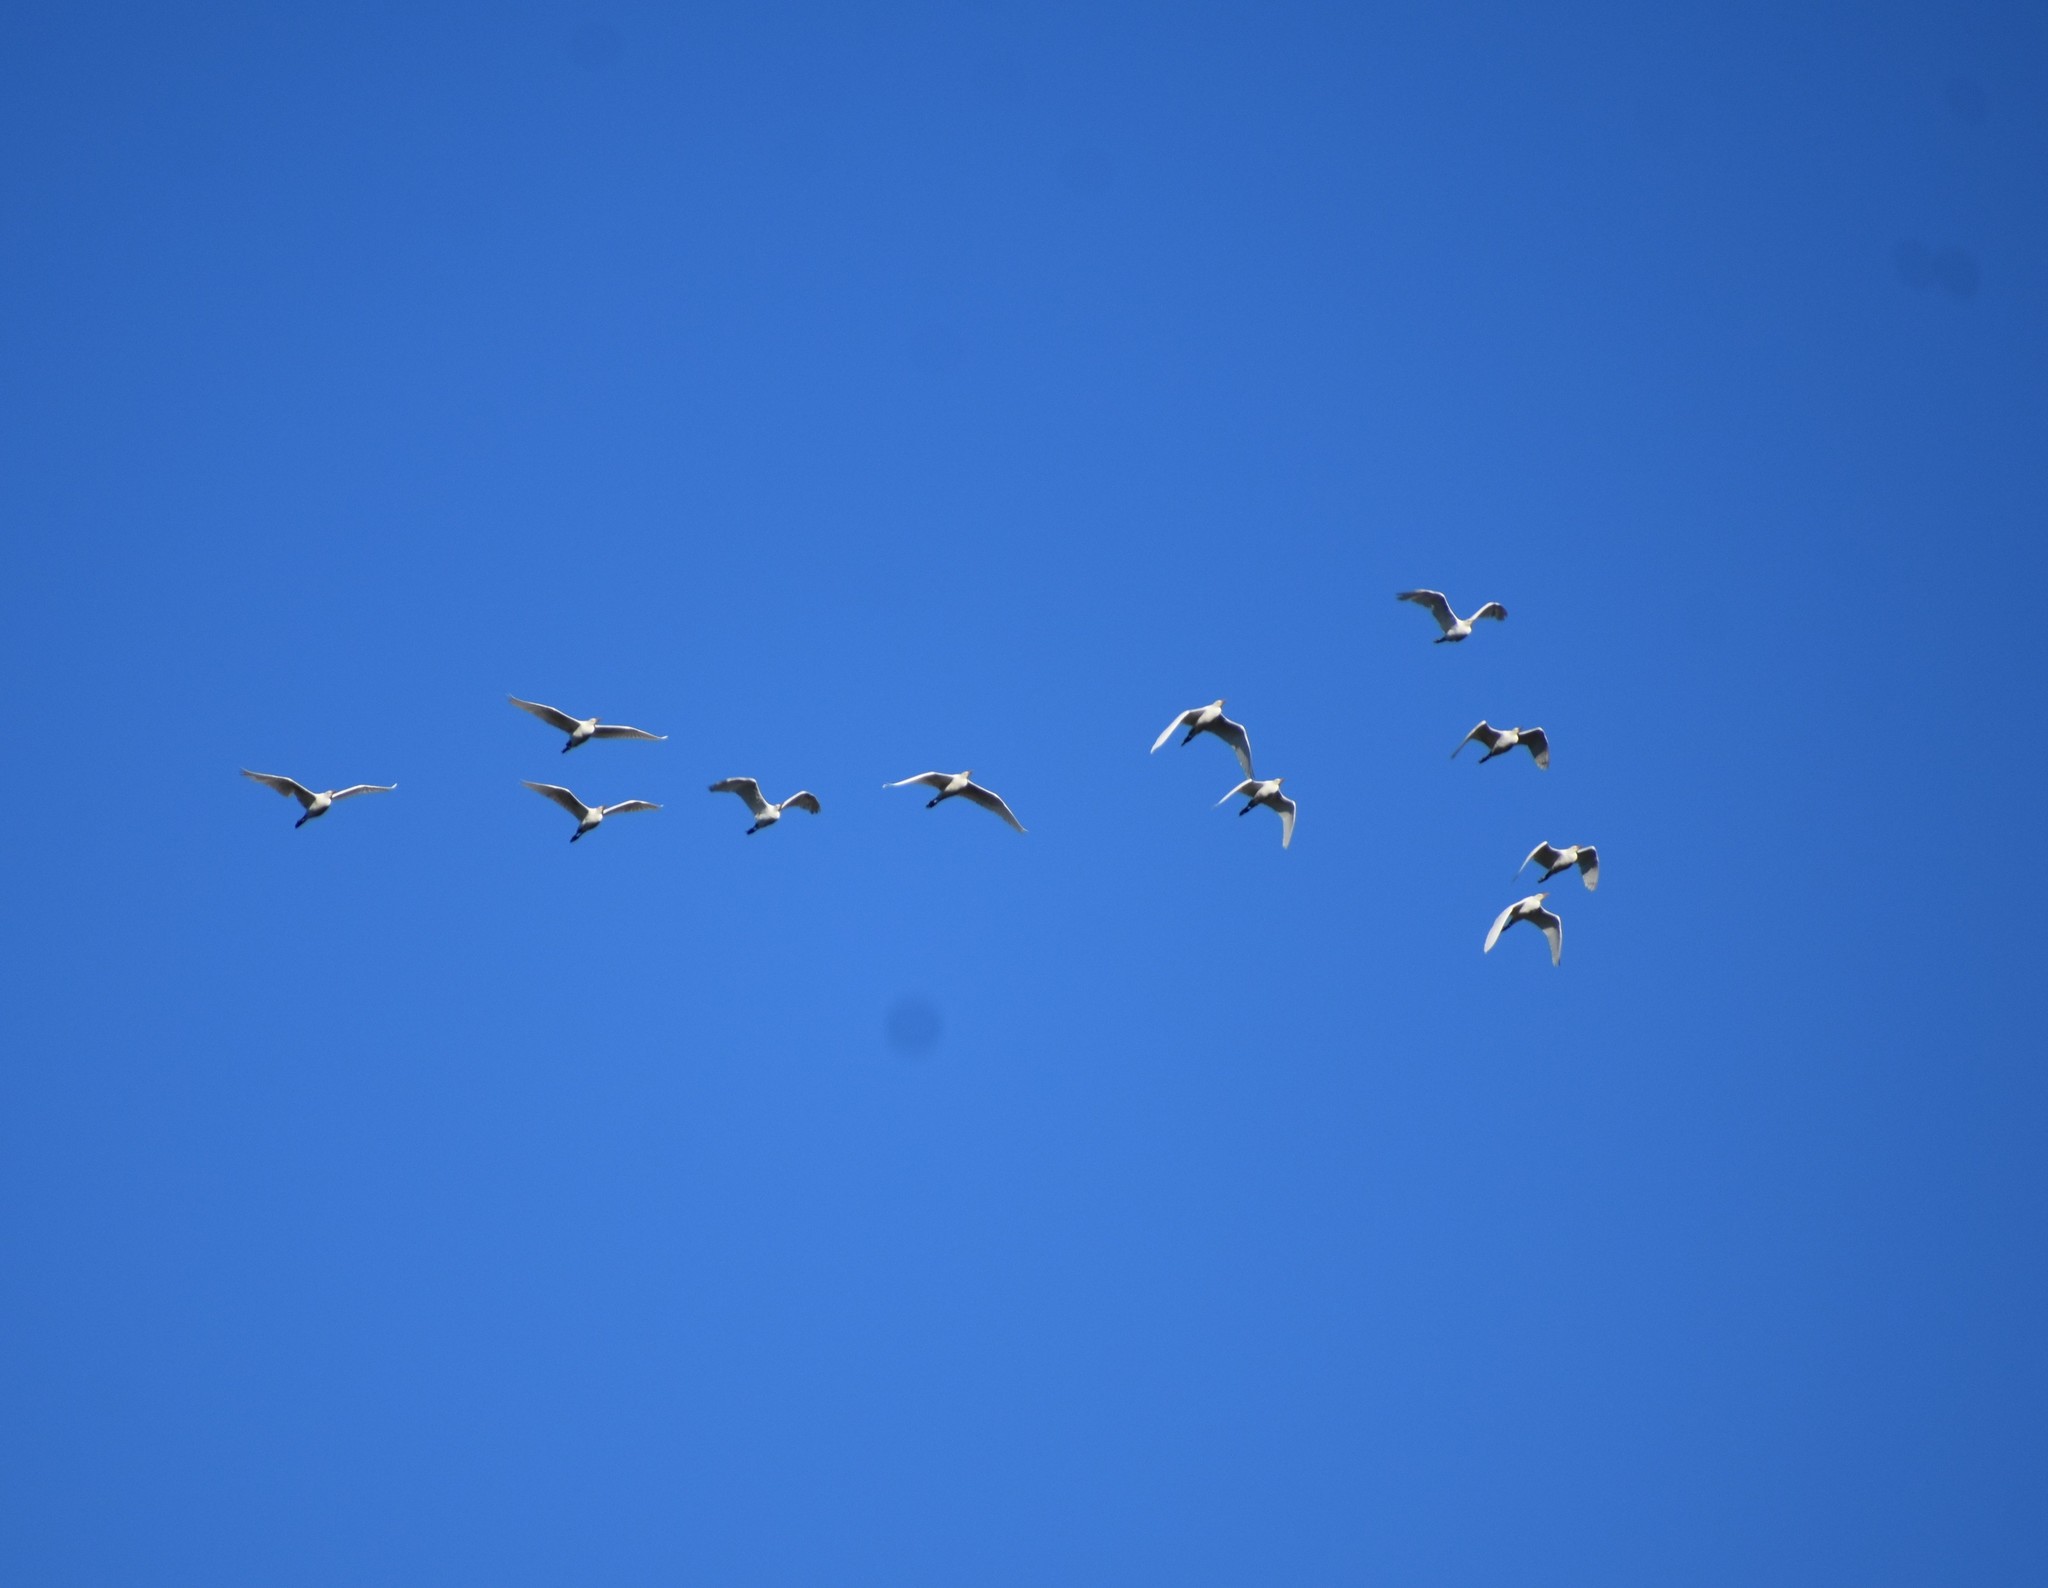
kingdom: Animalia
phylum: Chordata
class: Aves
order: Pelecaniformes
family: Ardeidae
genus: Bubulcus
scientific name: Bubulcus ibis
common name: Cattle egret
